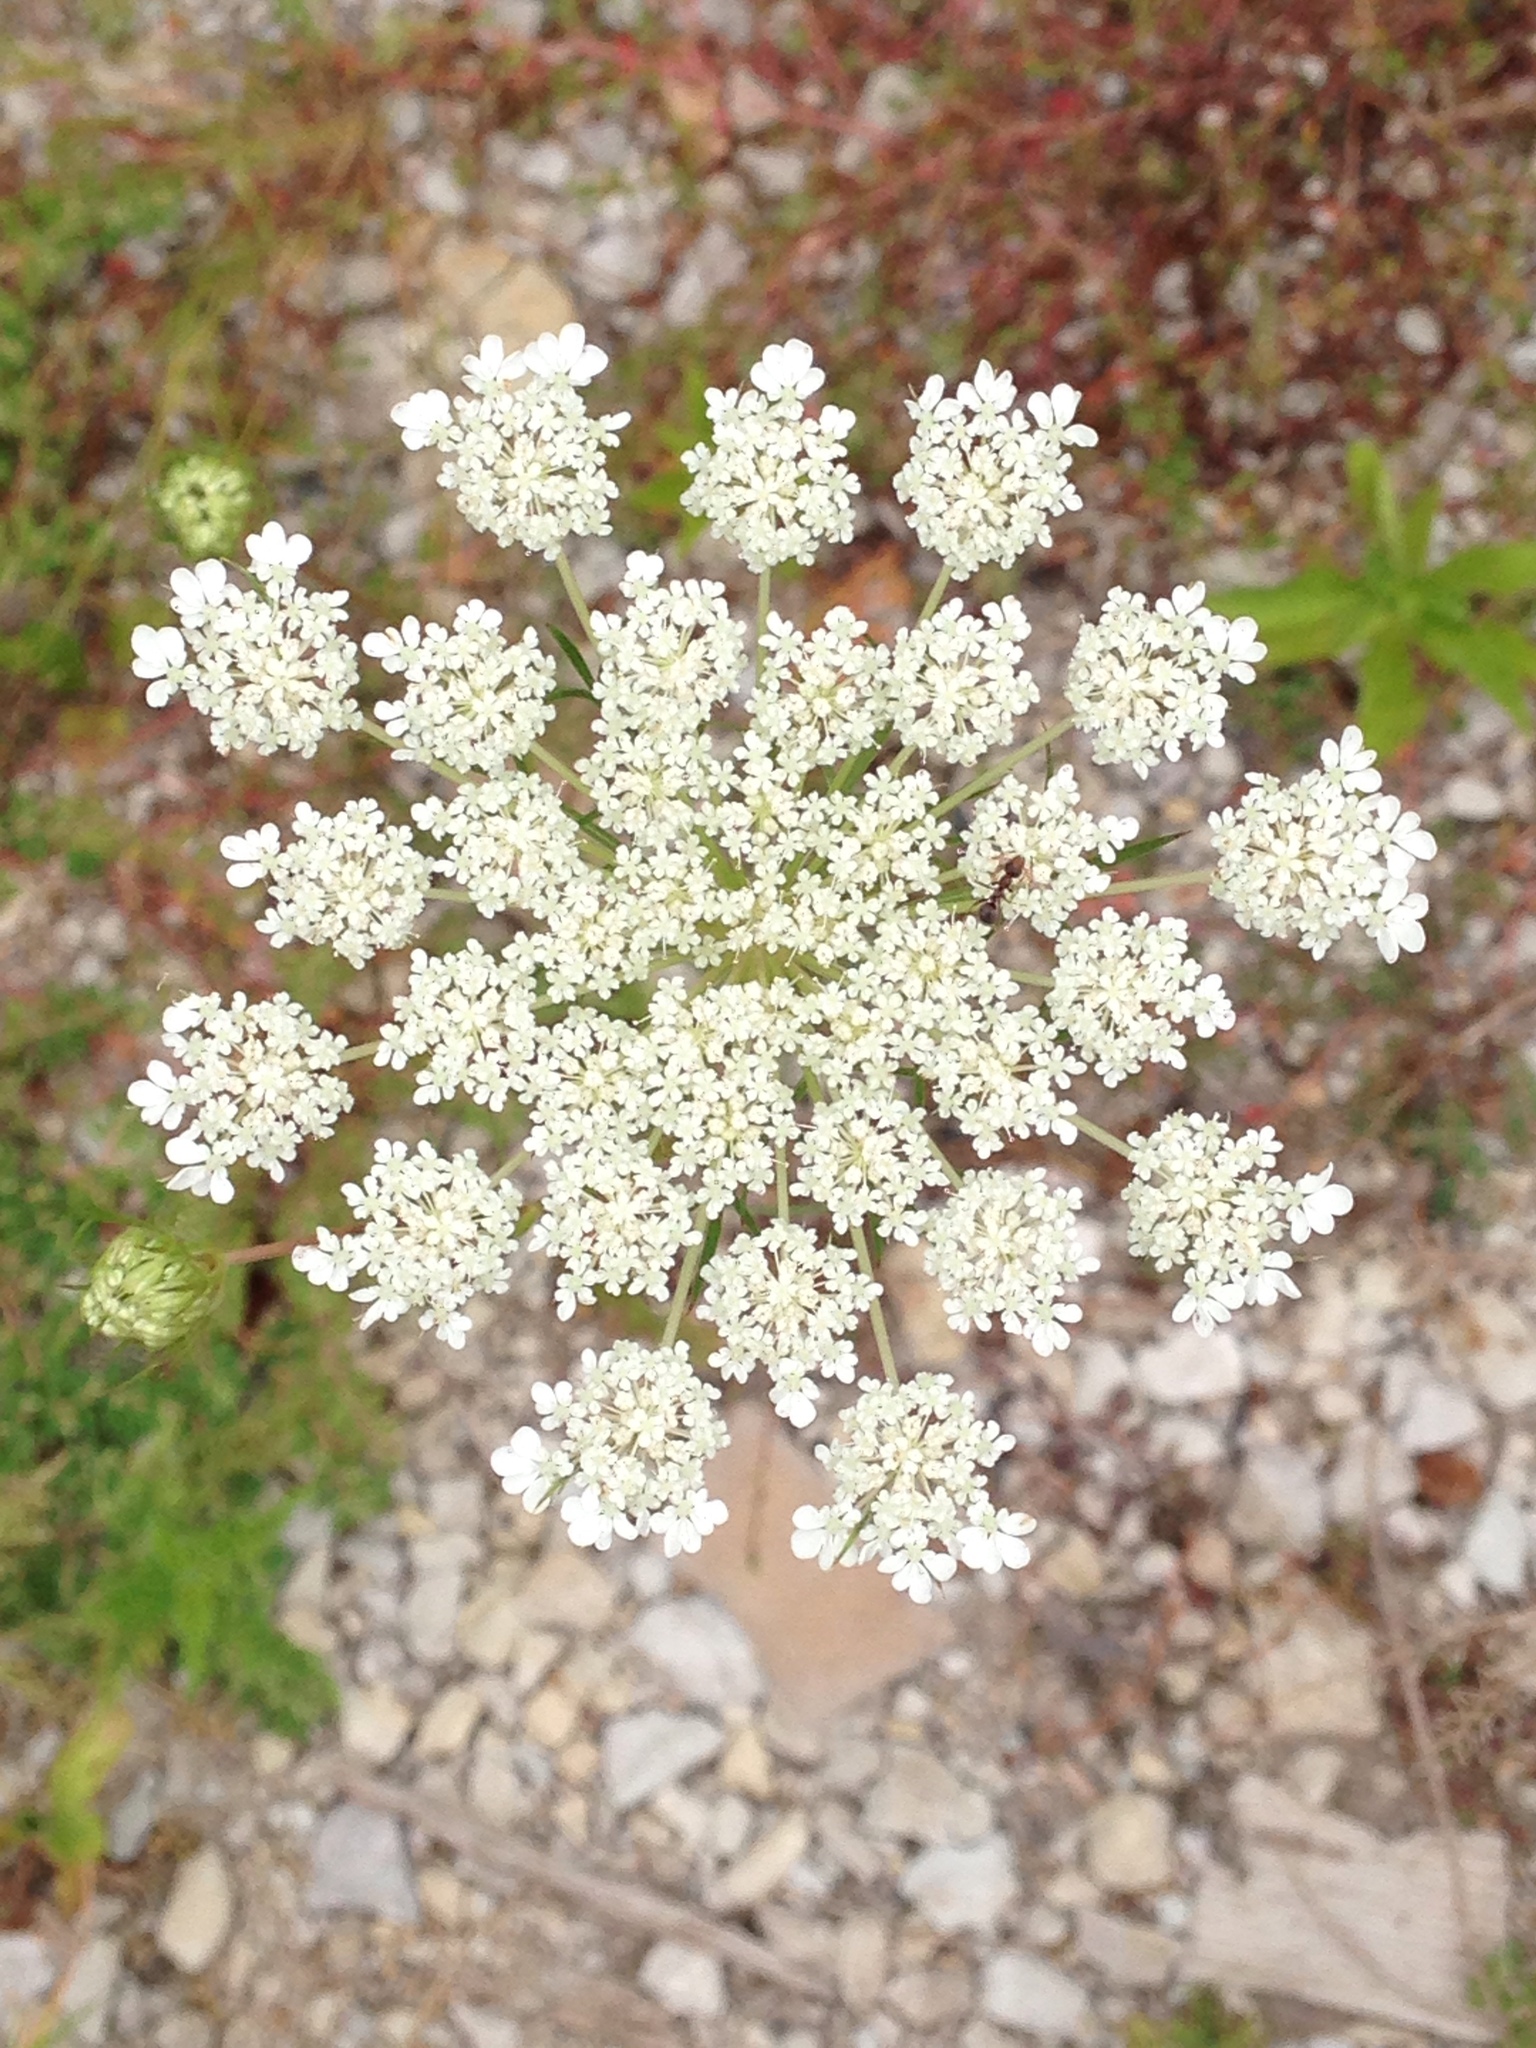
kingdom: Plantae
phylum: Tracheophyta
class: Magnoliopsida
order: Apiales
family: Apiaceae
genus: Daucus
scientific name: Daucus carota
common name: Wild carrot
